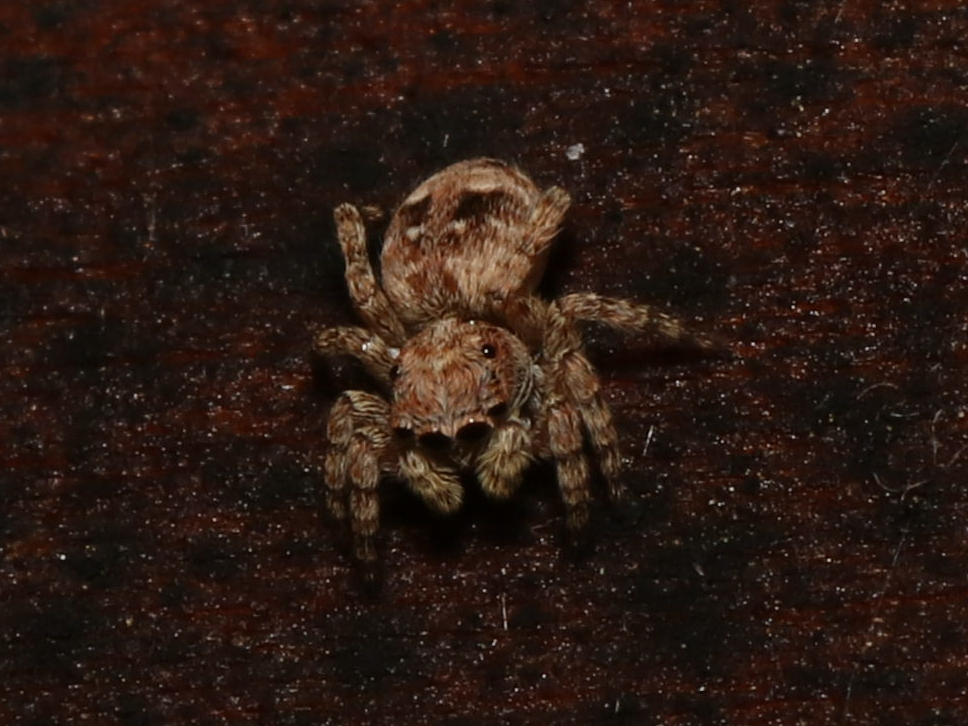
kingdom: Animalia
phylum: Arthropoda
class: Arachnida
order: Araneae
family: Salticidae
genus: Attulus
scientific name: Attulus fasciger
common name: Asiatic wall jumping spider
